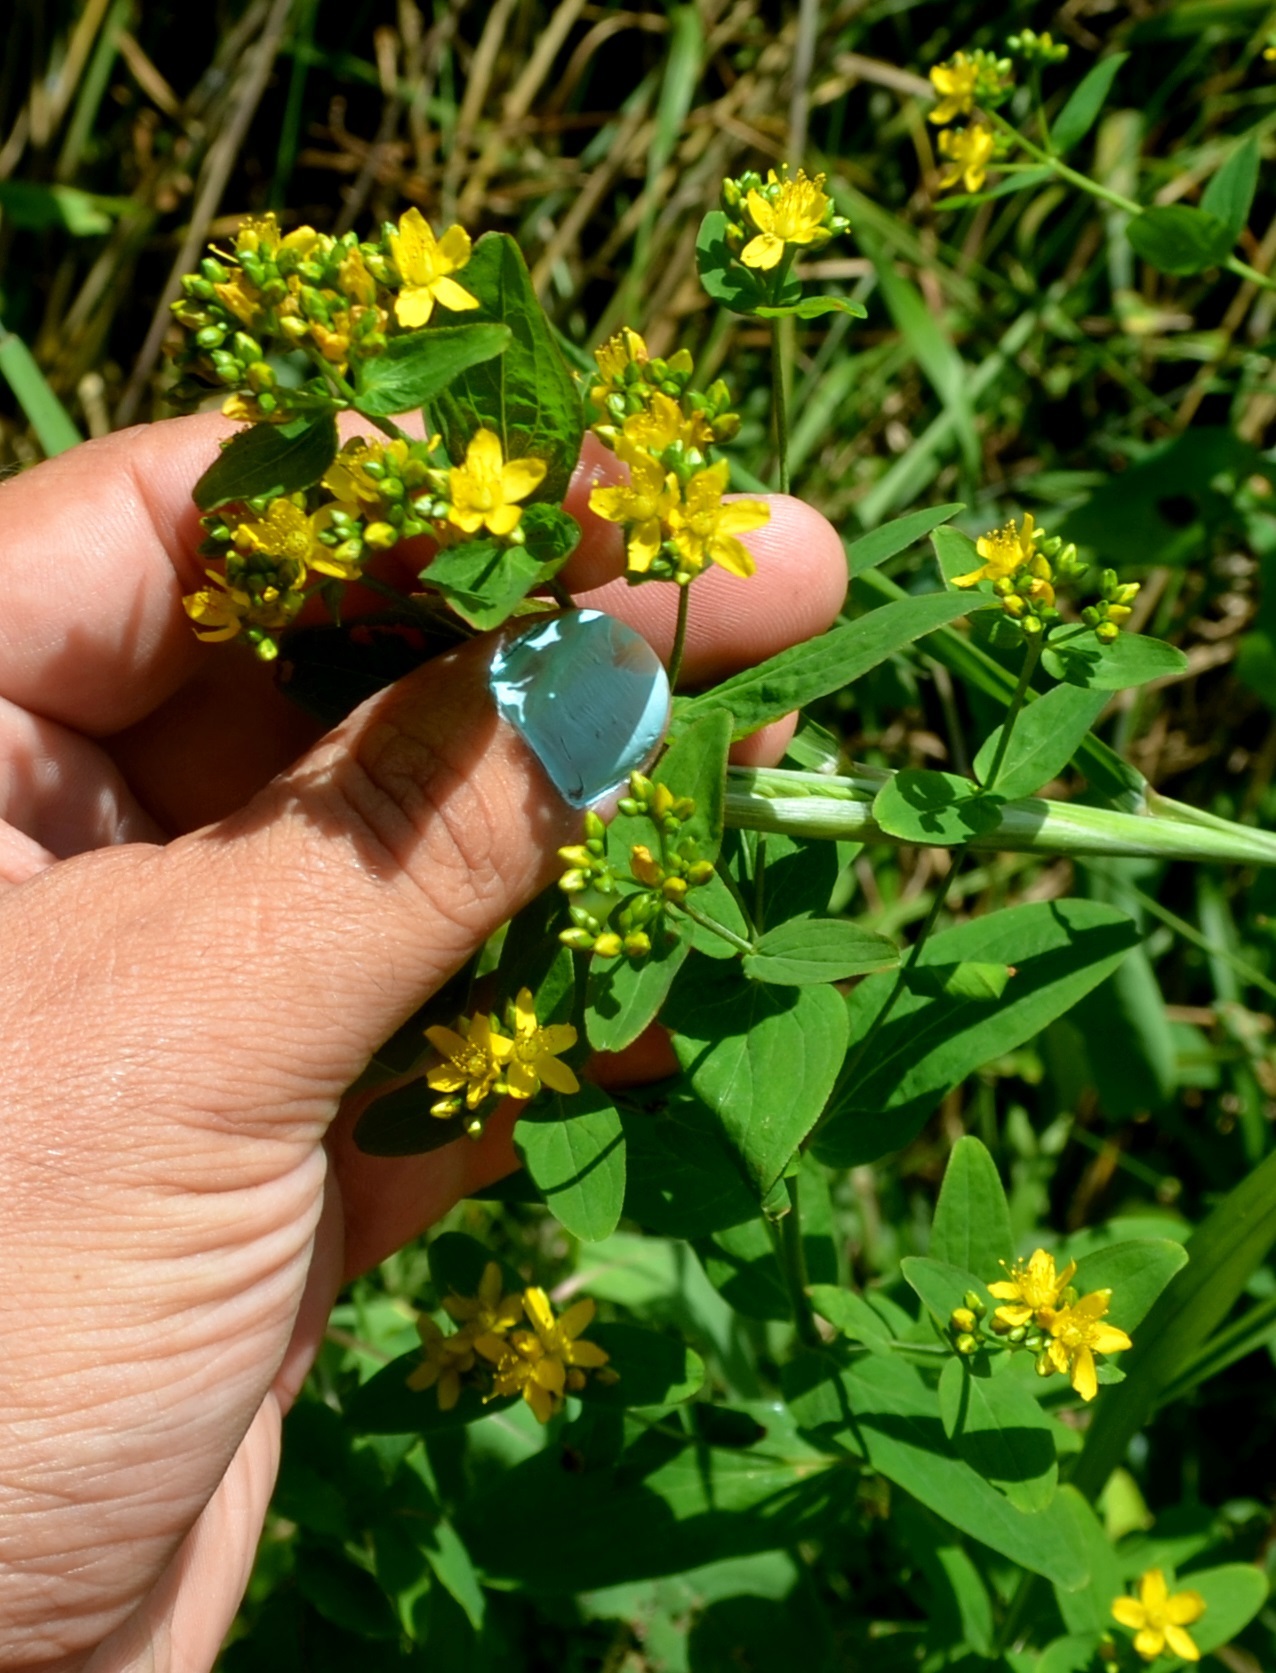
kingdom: Plantae
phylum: Tracheophyta
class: Magnoliopsida
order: Malpighiales
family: Hypericaceae
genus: Hypericum
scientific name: Hypericum punctatum
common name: Spotted st. john's-wort
